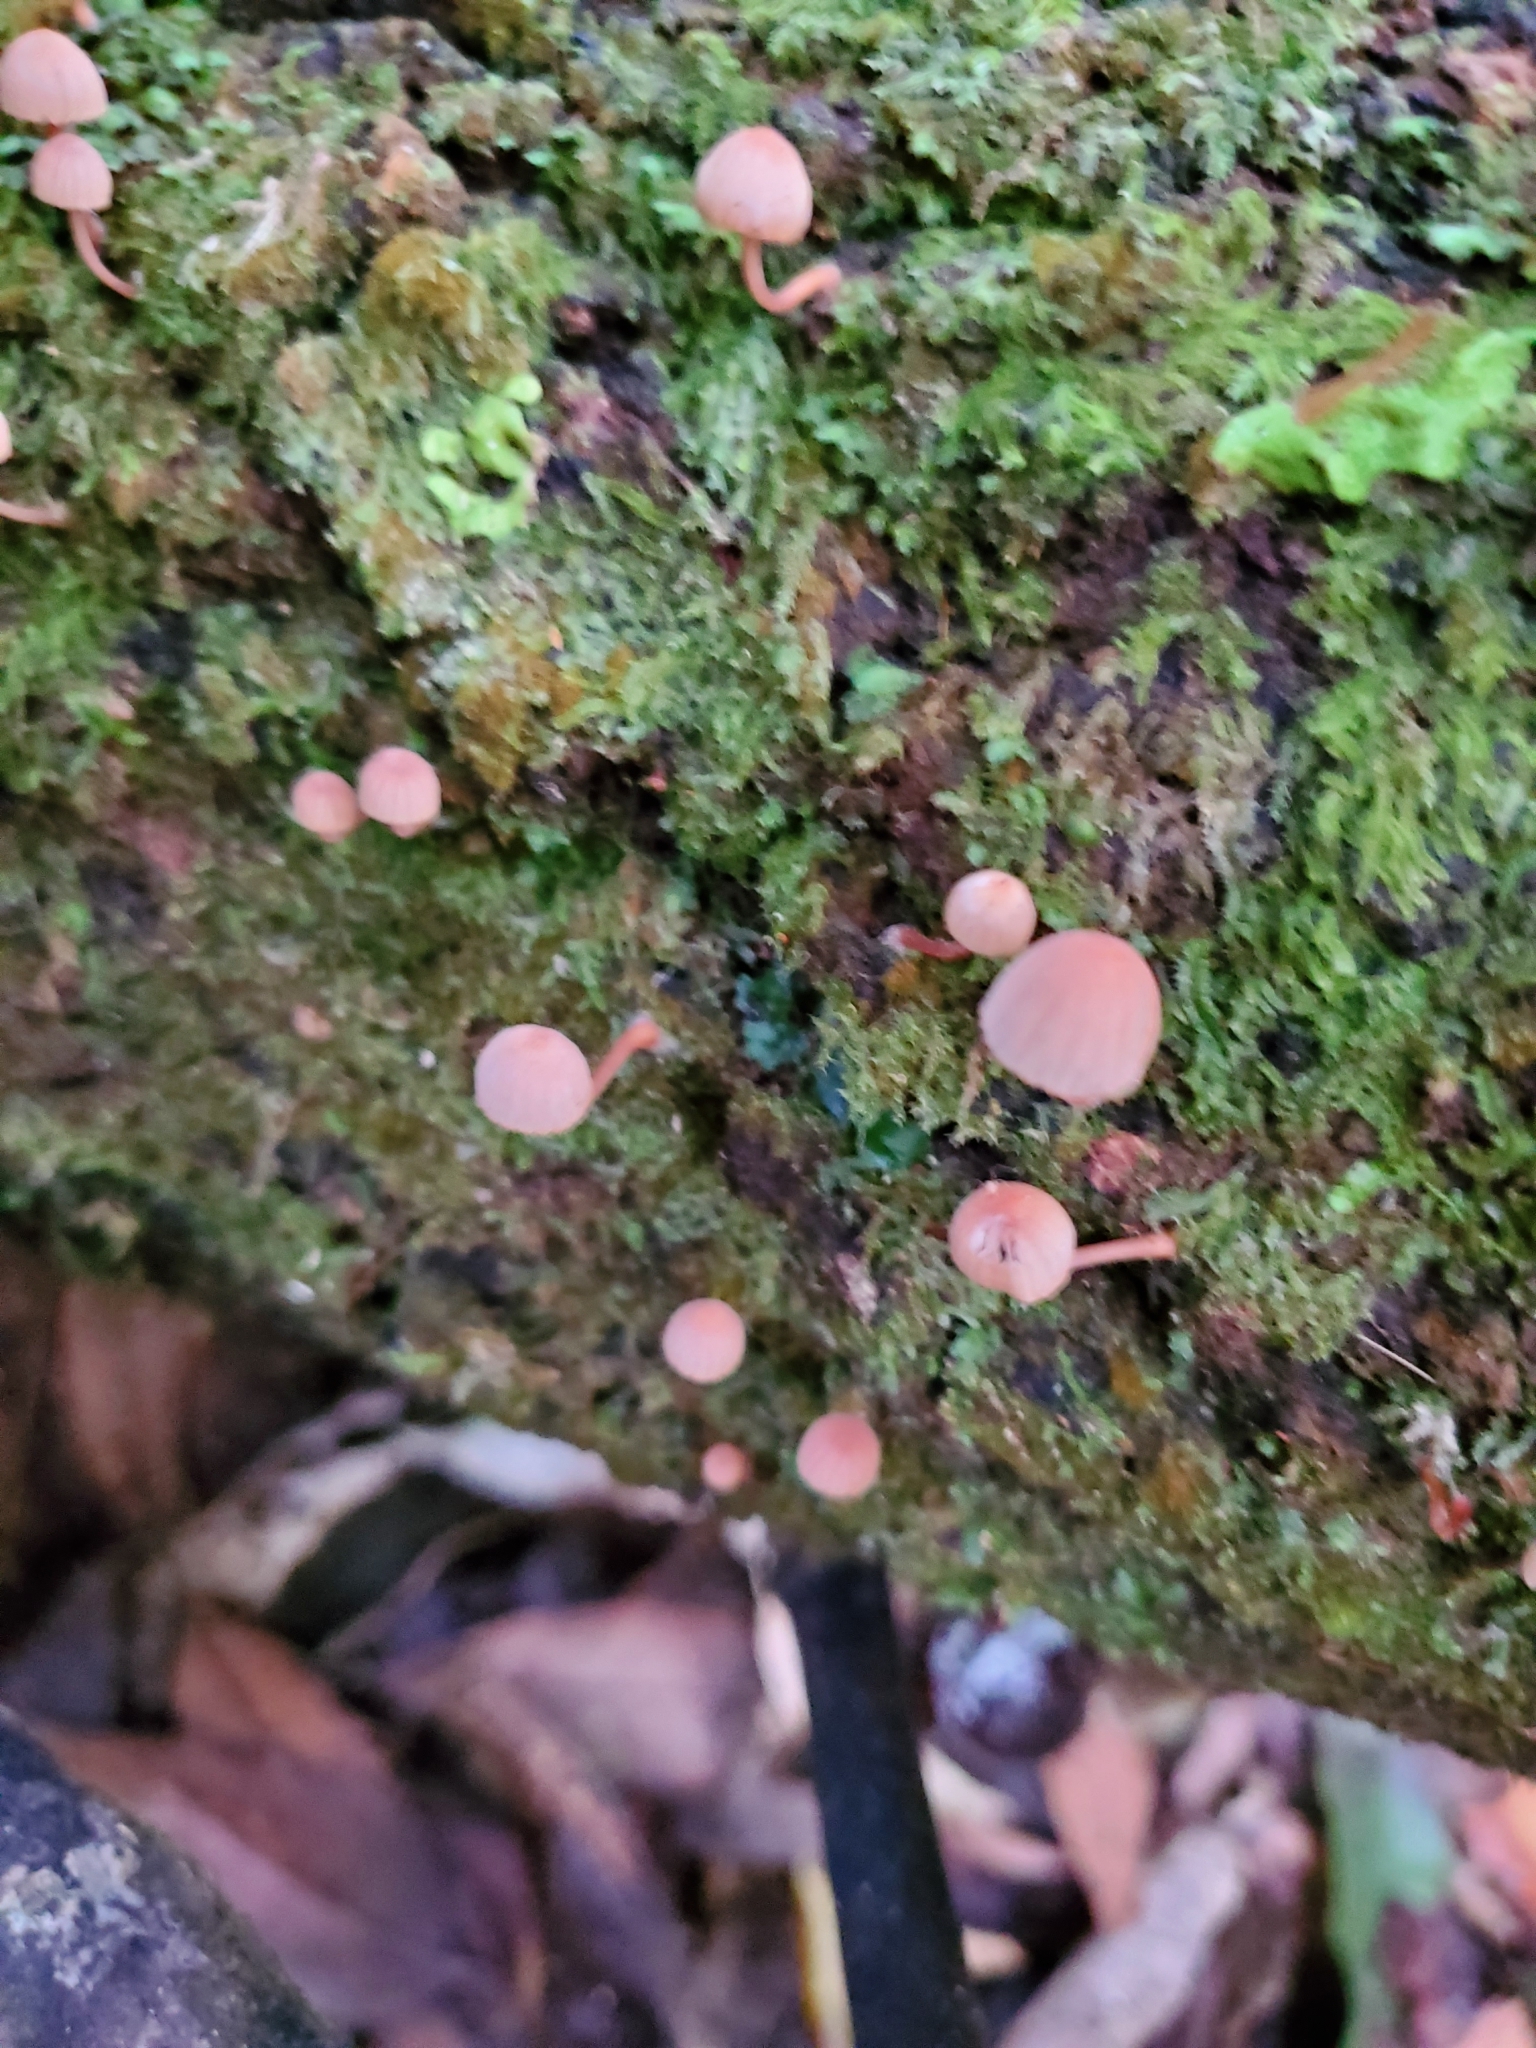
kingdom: Fungi
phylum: Basidiomycota
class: Agaricomycetes
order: Agaricales
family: Mycenaceae
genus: Mycena
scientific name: Mycena mariae
